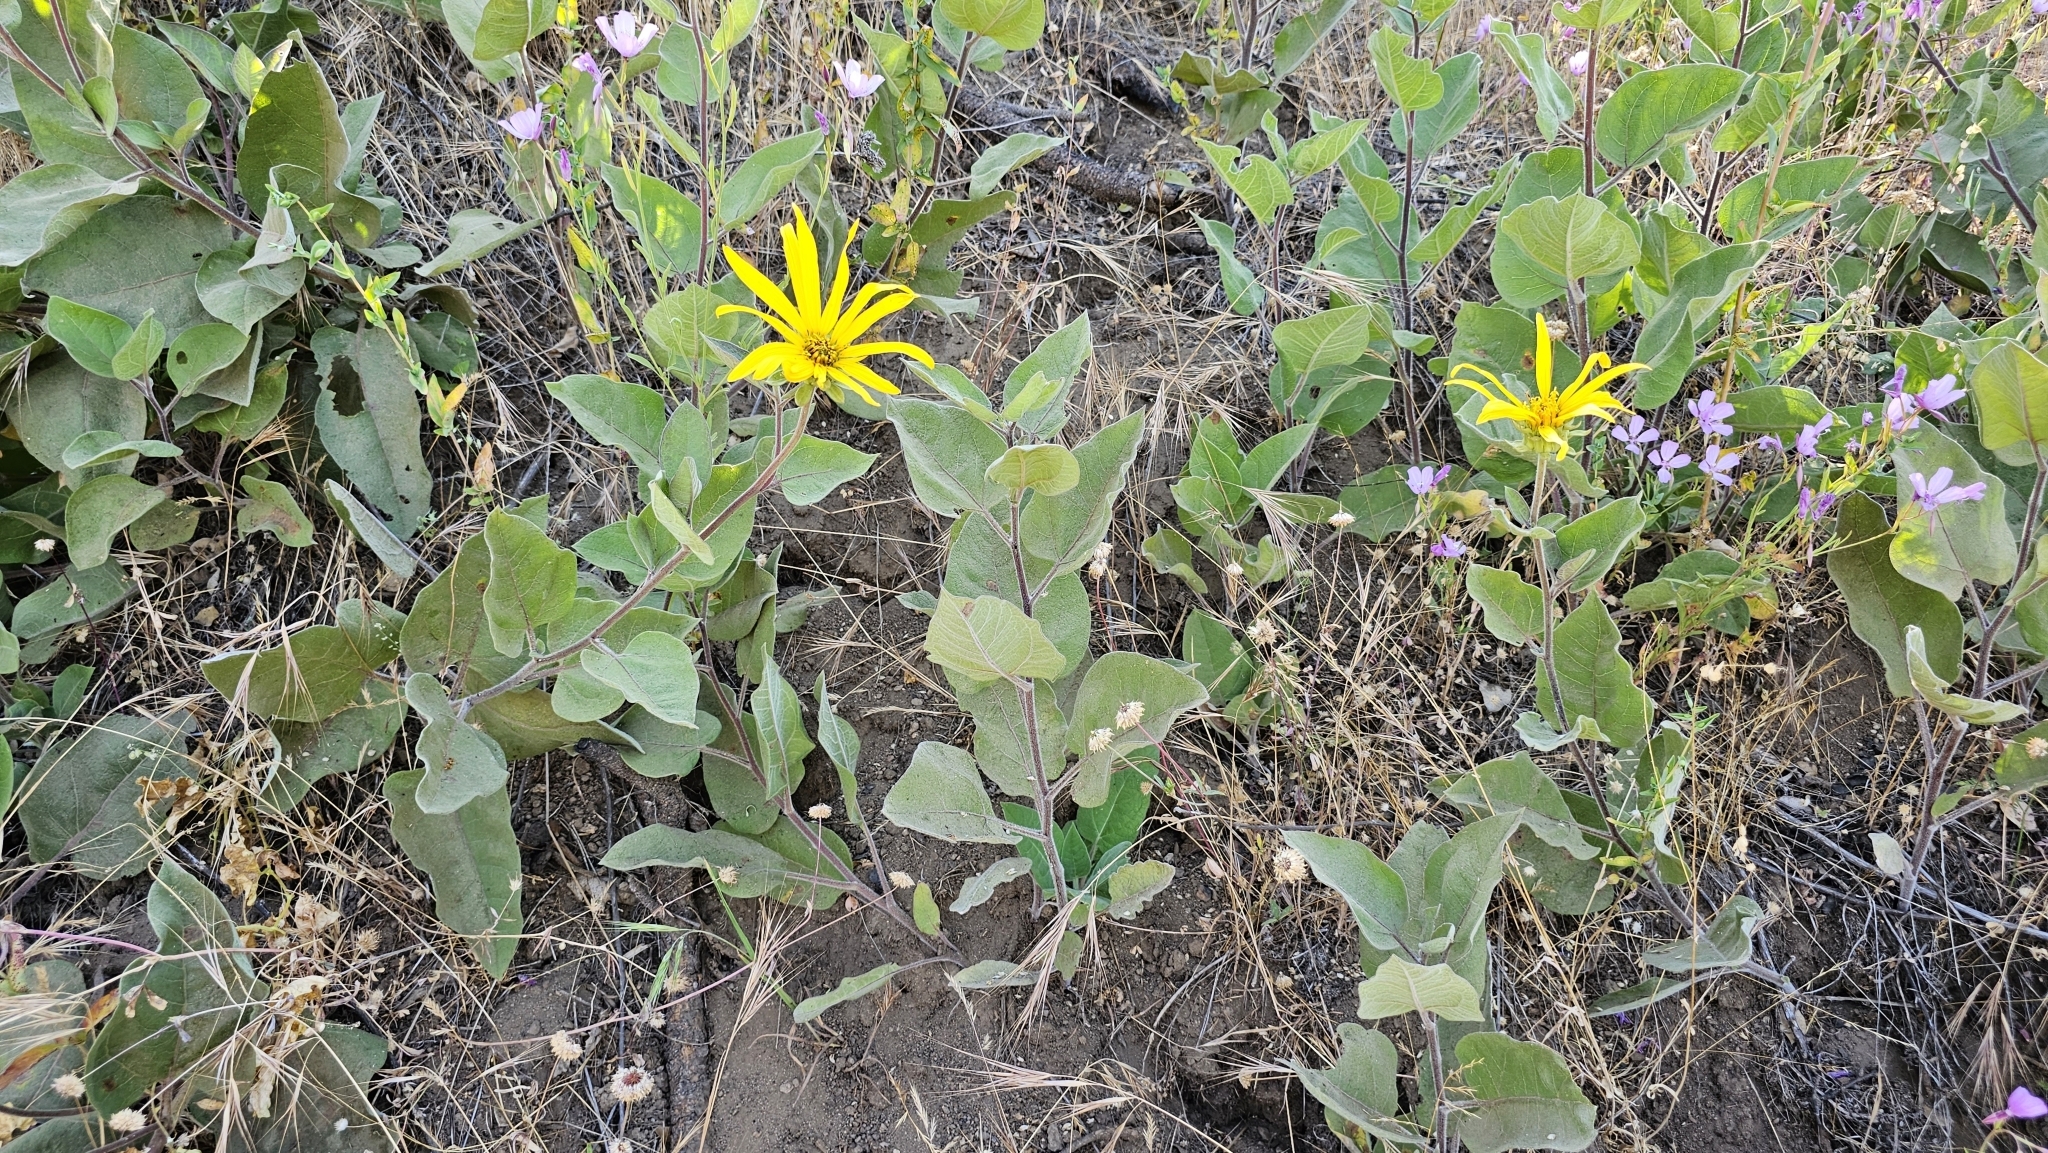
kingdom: Plantae
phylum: Tracheophyta
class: Magnoliopsida
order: Asterales
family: Asteraceae
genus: Agnorhiza
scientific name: Agnorhiza elata
